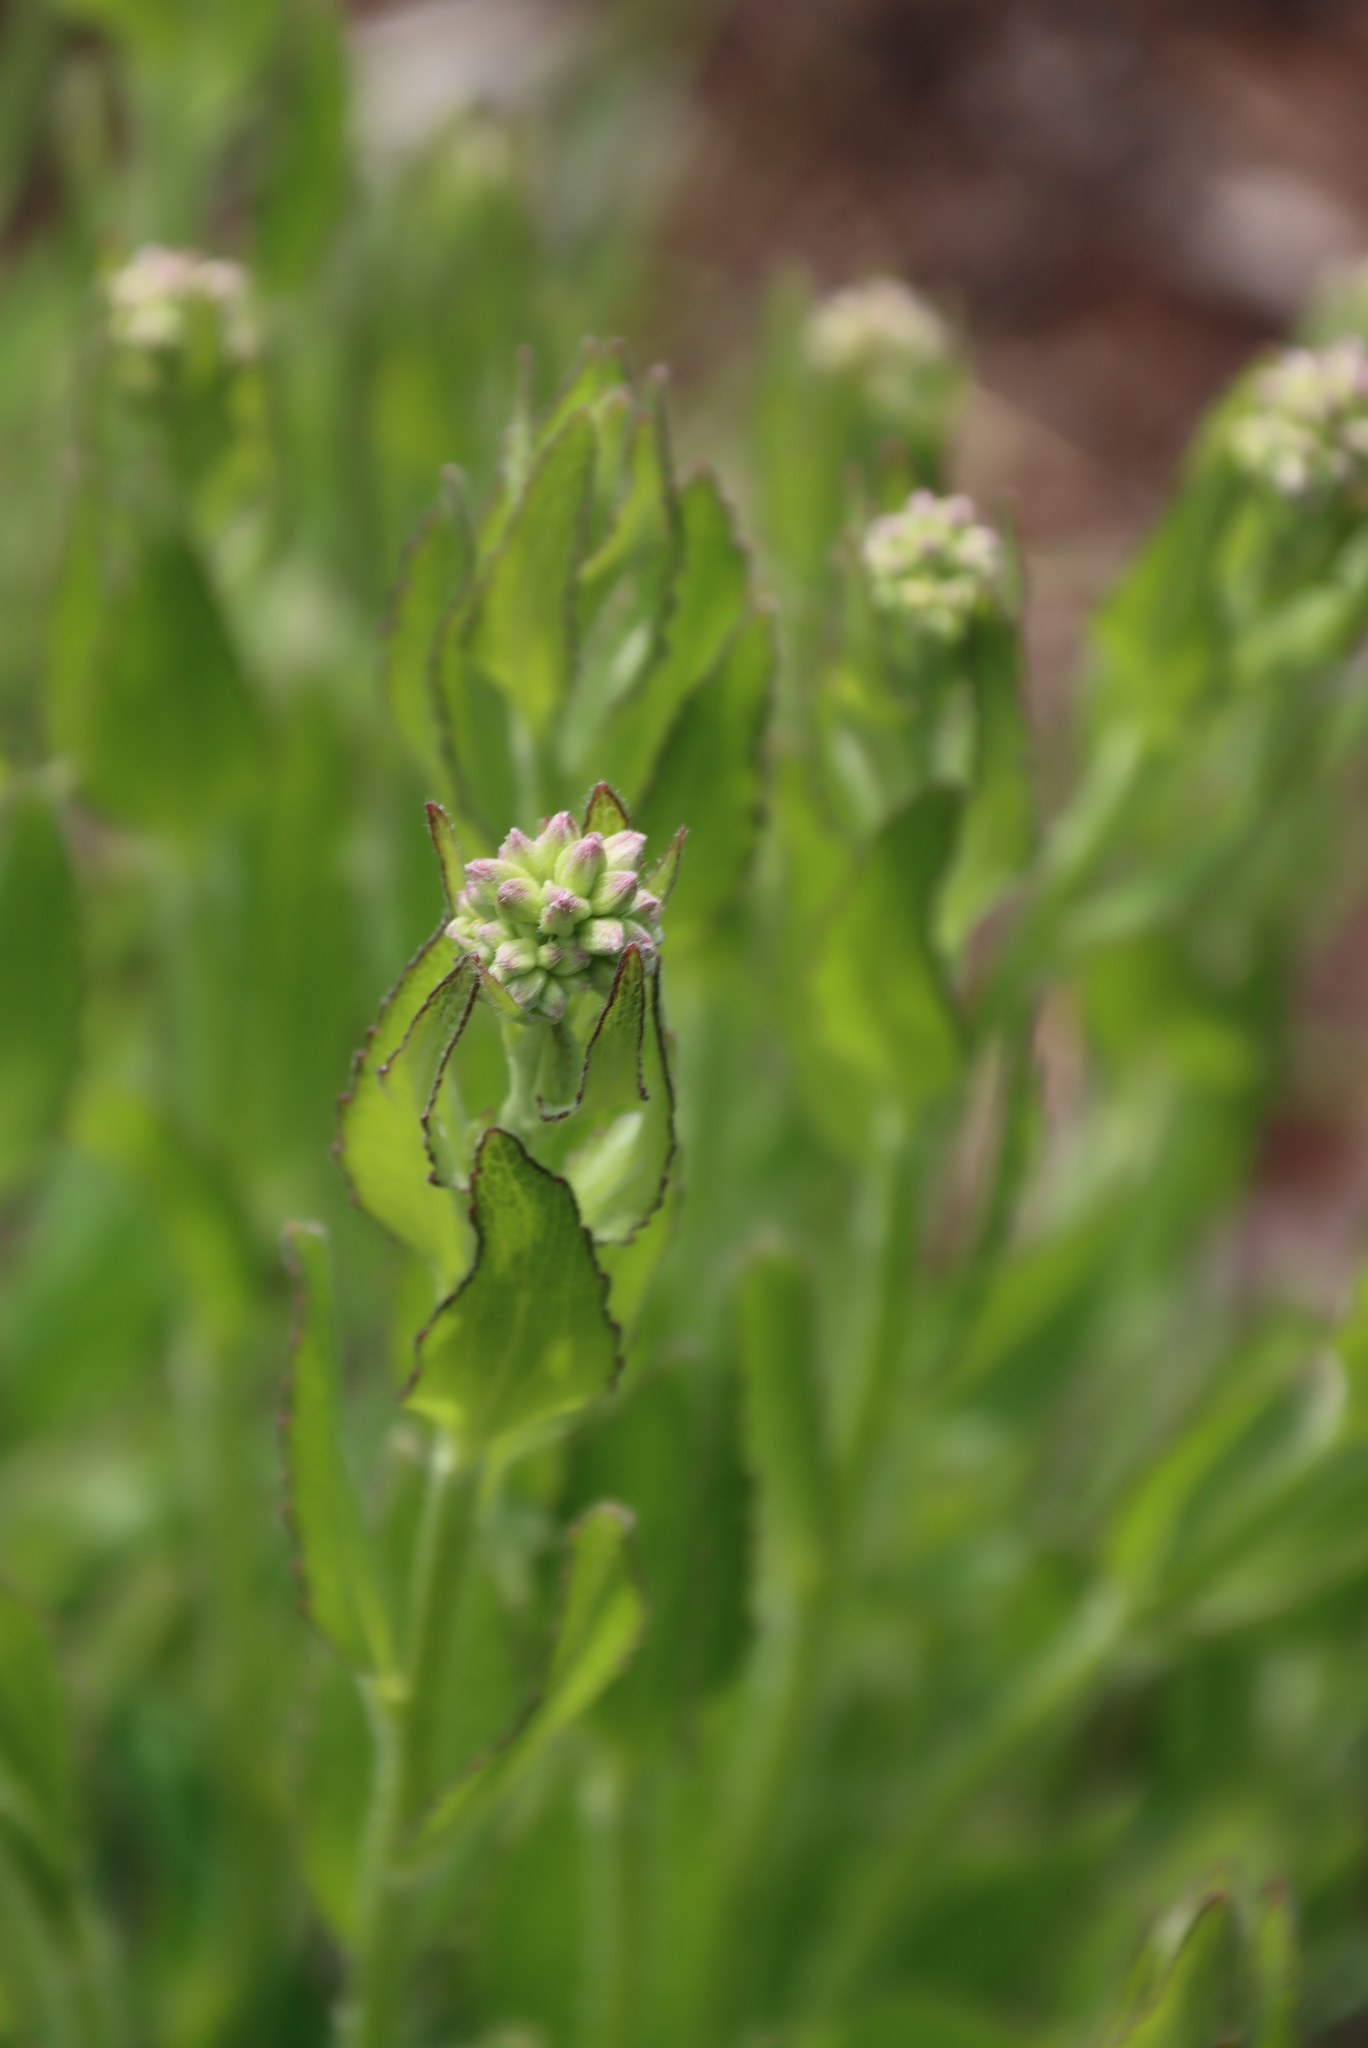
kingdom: Plantae
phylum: Tracheophyta
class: Magnoliopsida
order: Lamiales
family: Lamiaceae
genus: Ocimum
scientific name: Ocimum obovatum
